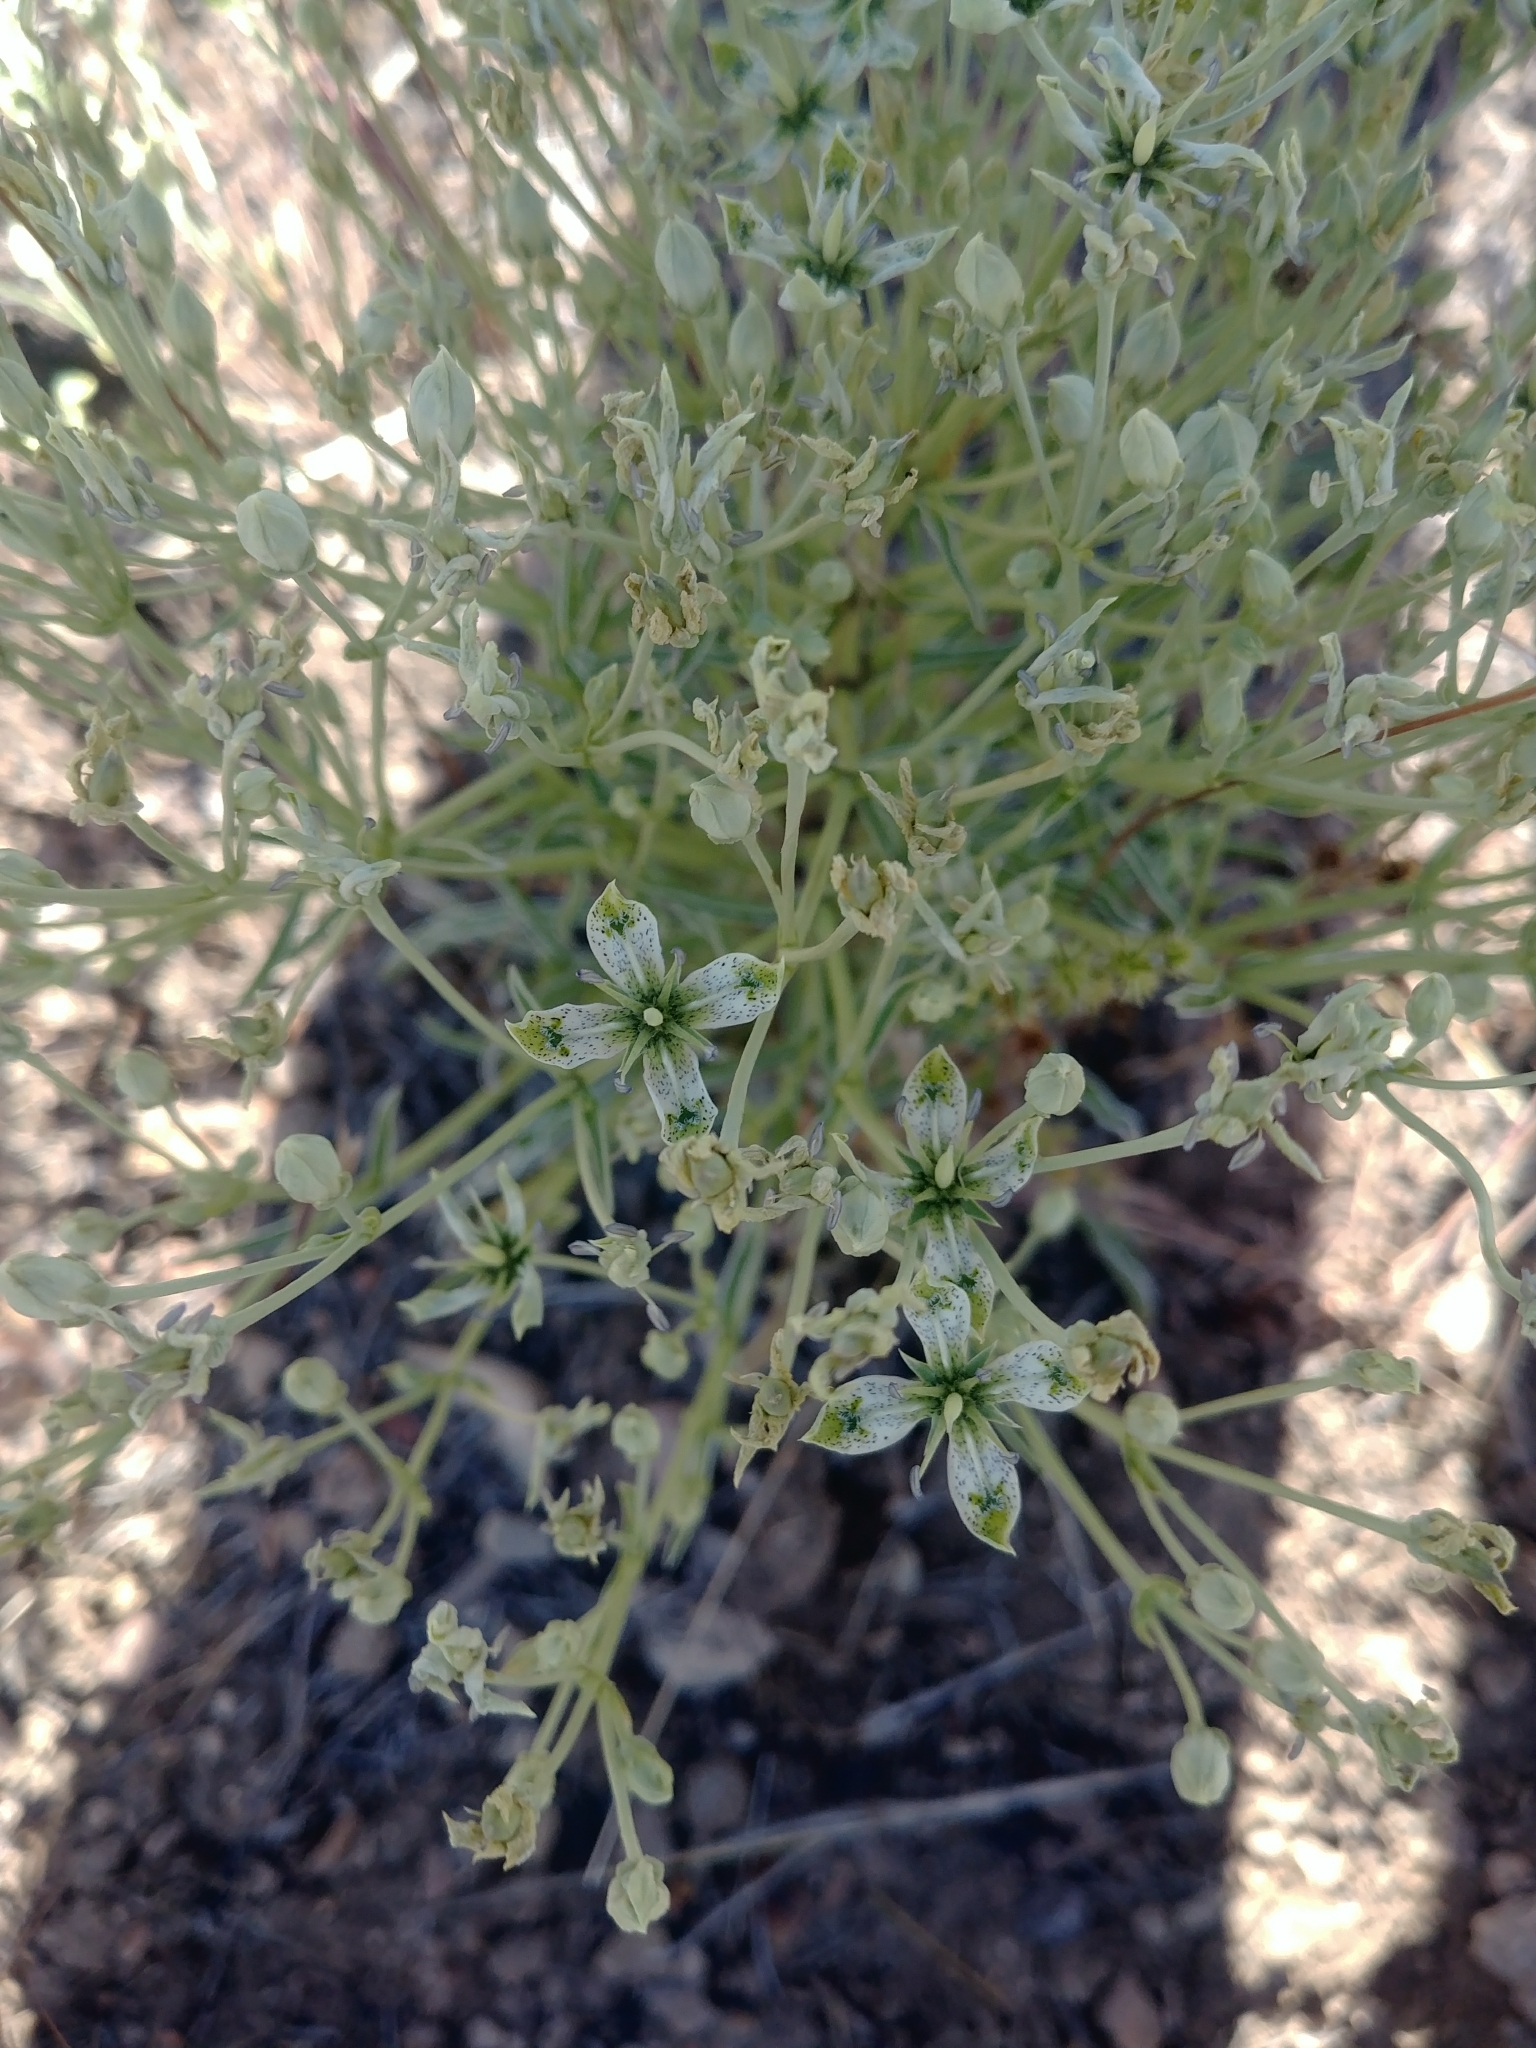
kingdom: Plantae
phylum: Tracheophyta
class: Magnoliopsida
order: Gentianales
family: Gentianaceae
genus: Frasera
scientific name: Frasera albomarginata
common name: Desert frasera
